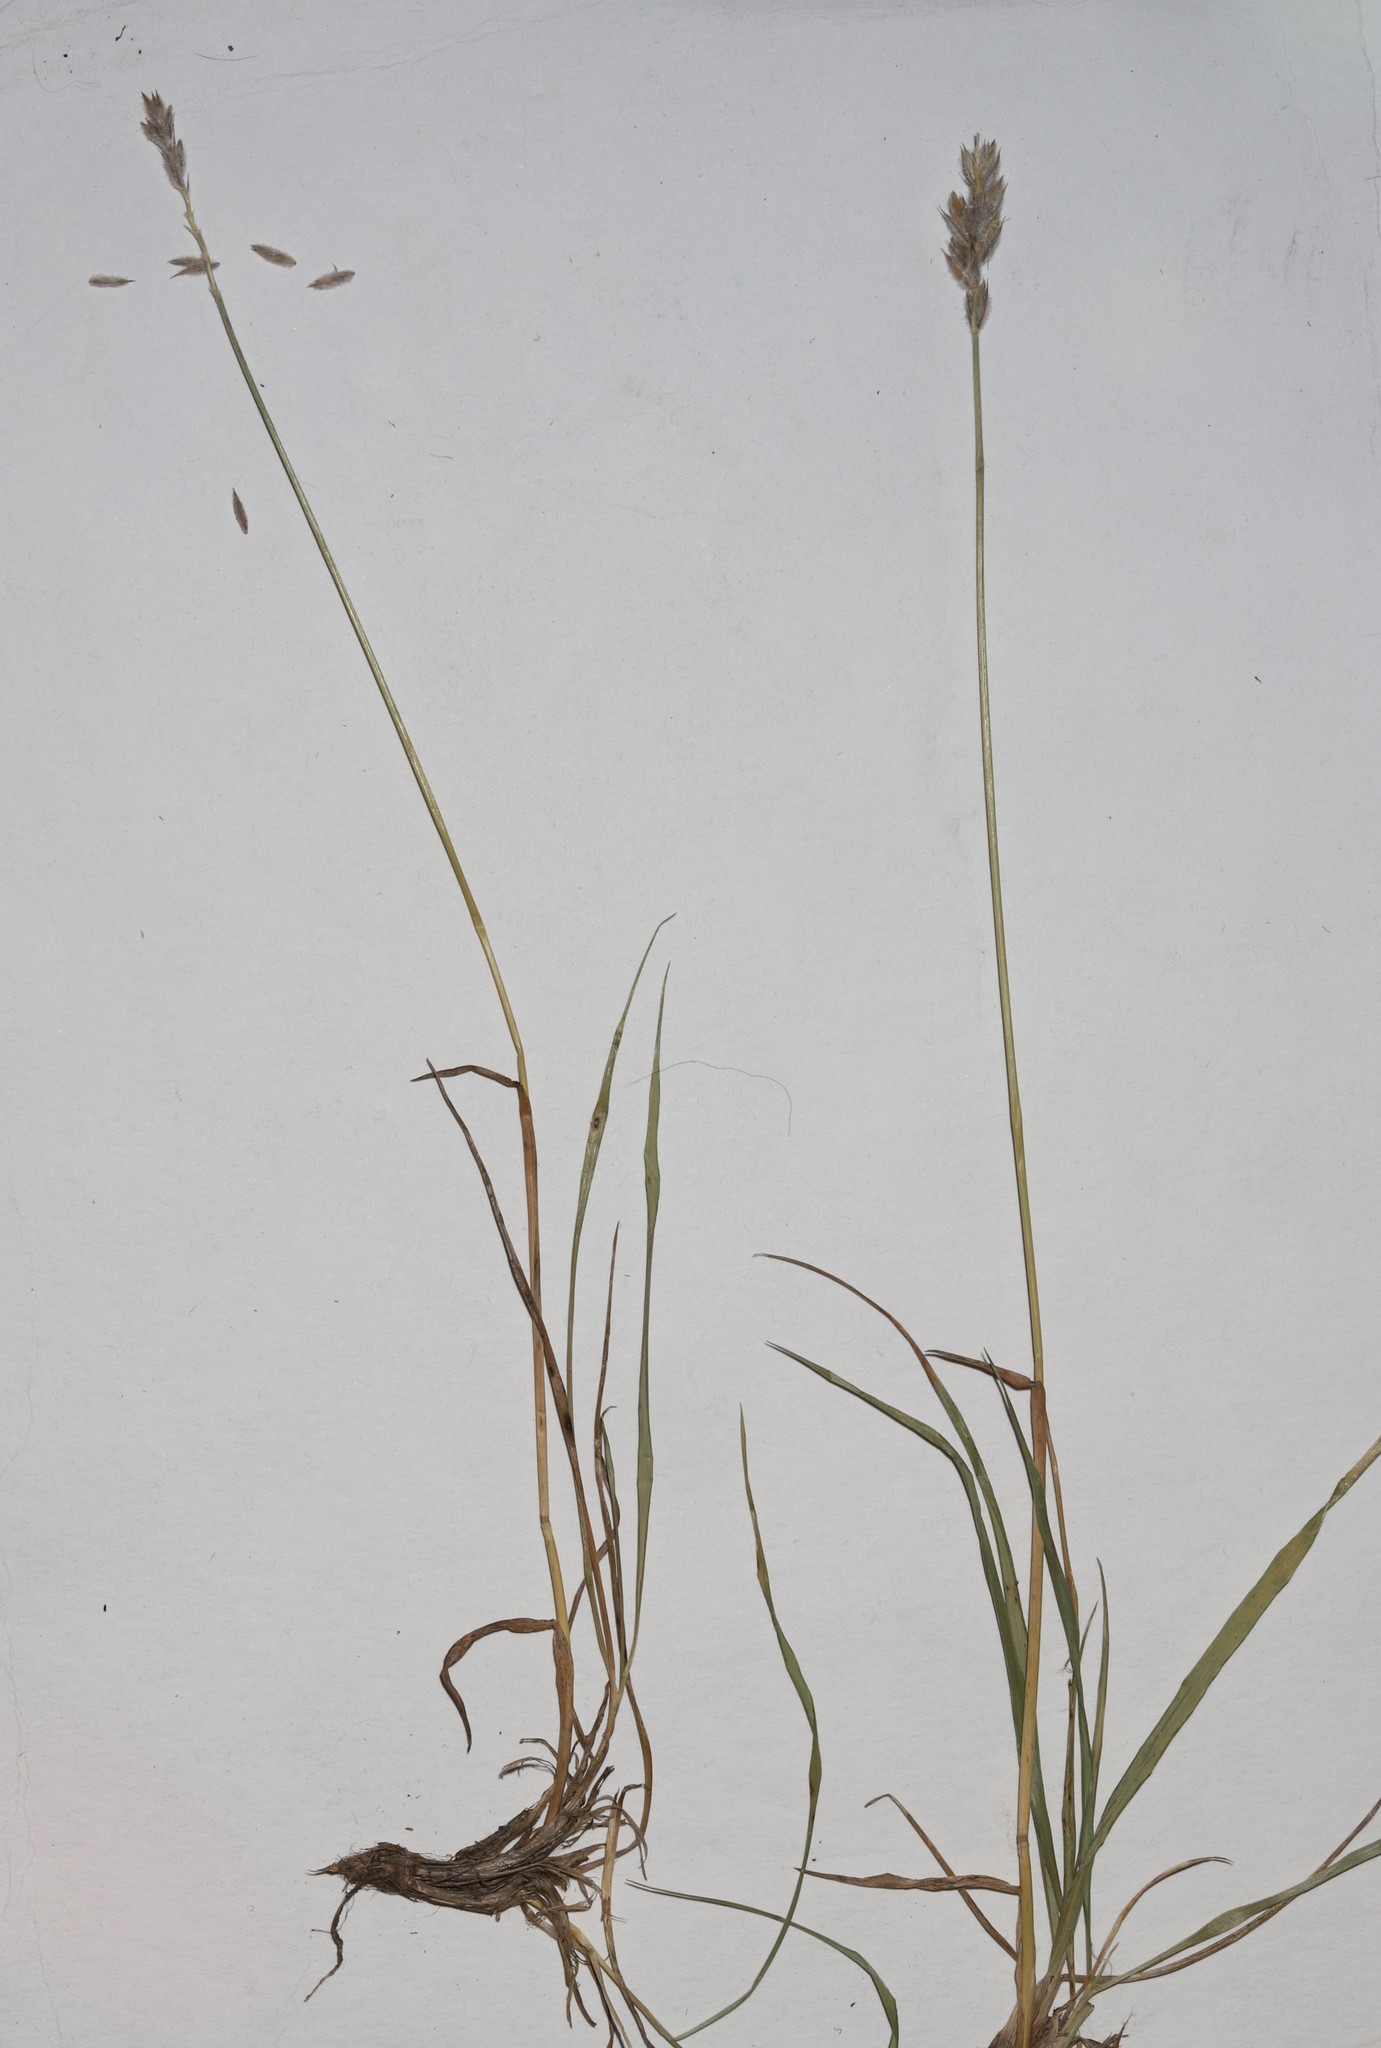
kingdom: Plantae
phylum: Tracheophyta
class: Liliopsida
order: Poales
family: Poaceae
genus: Leymus
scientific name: Leymus innovatus
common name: Boreal wild rye
